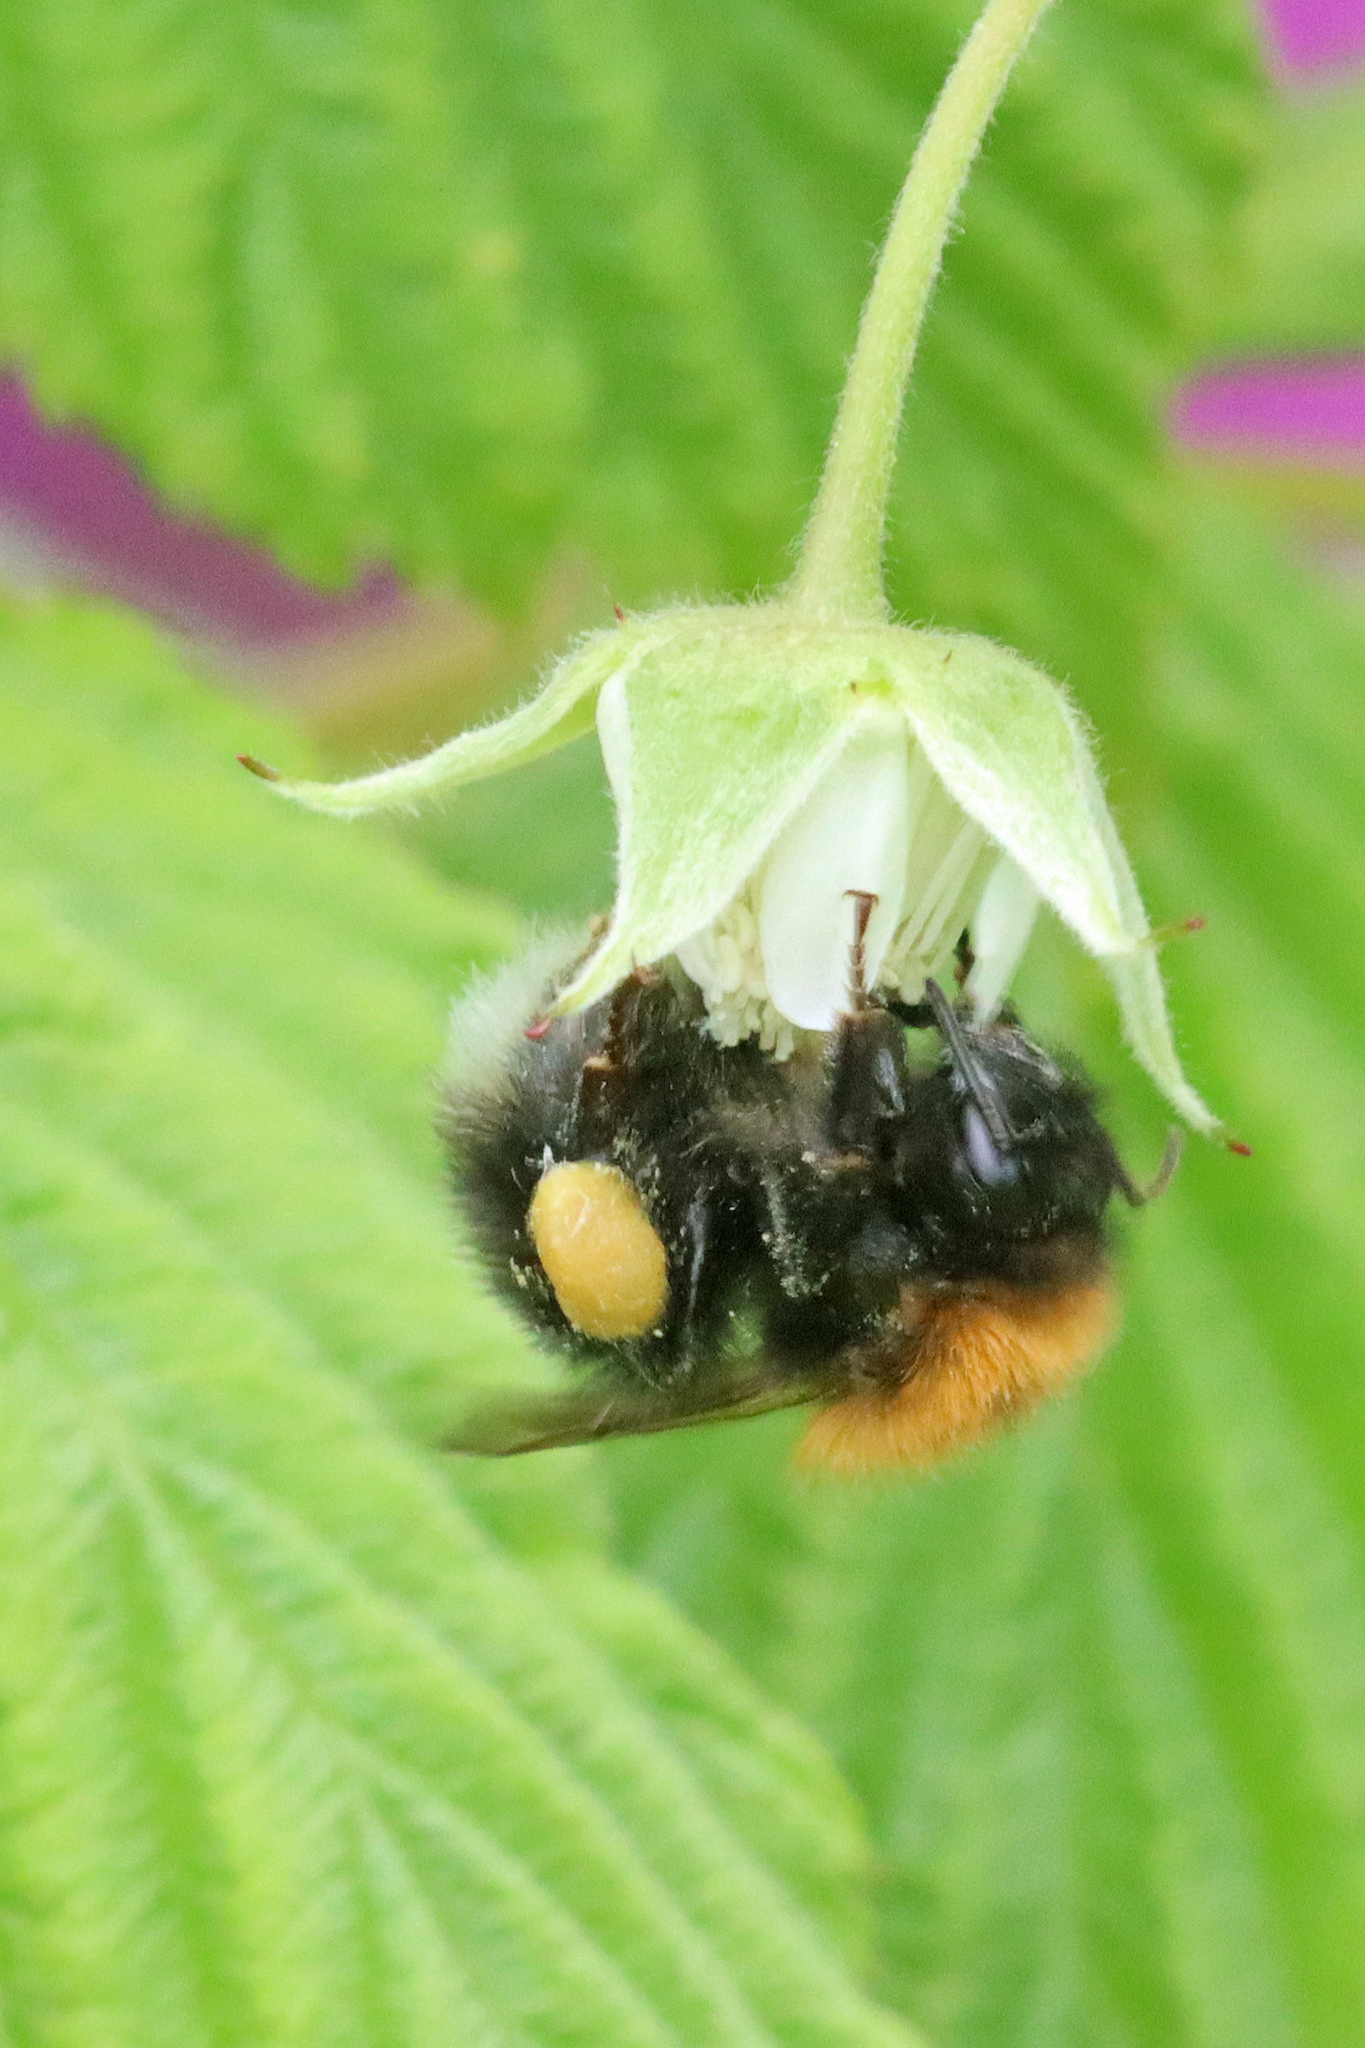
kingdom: Animalia
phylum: Arthropoda
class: Insecta
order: Hymenoptera
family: Apidae
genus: Bombus
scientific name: Bombus hypnorum
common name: New garden bumblebee
